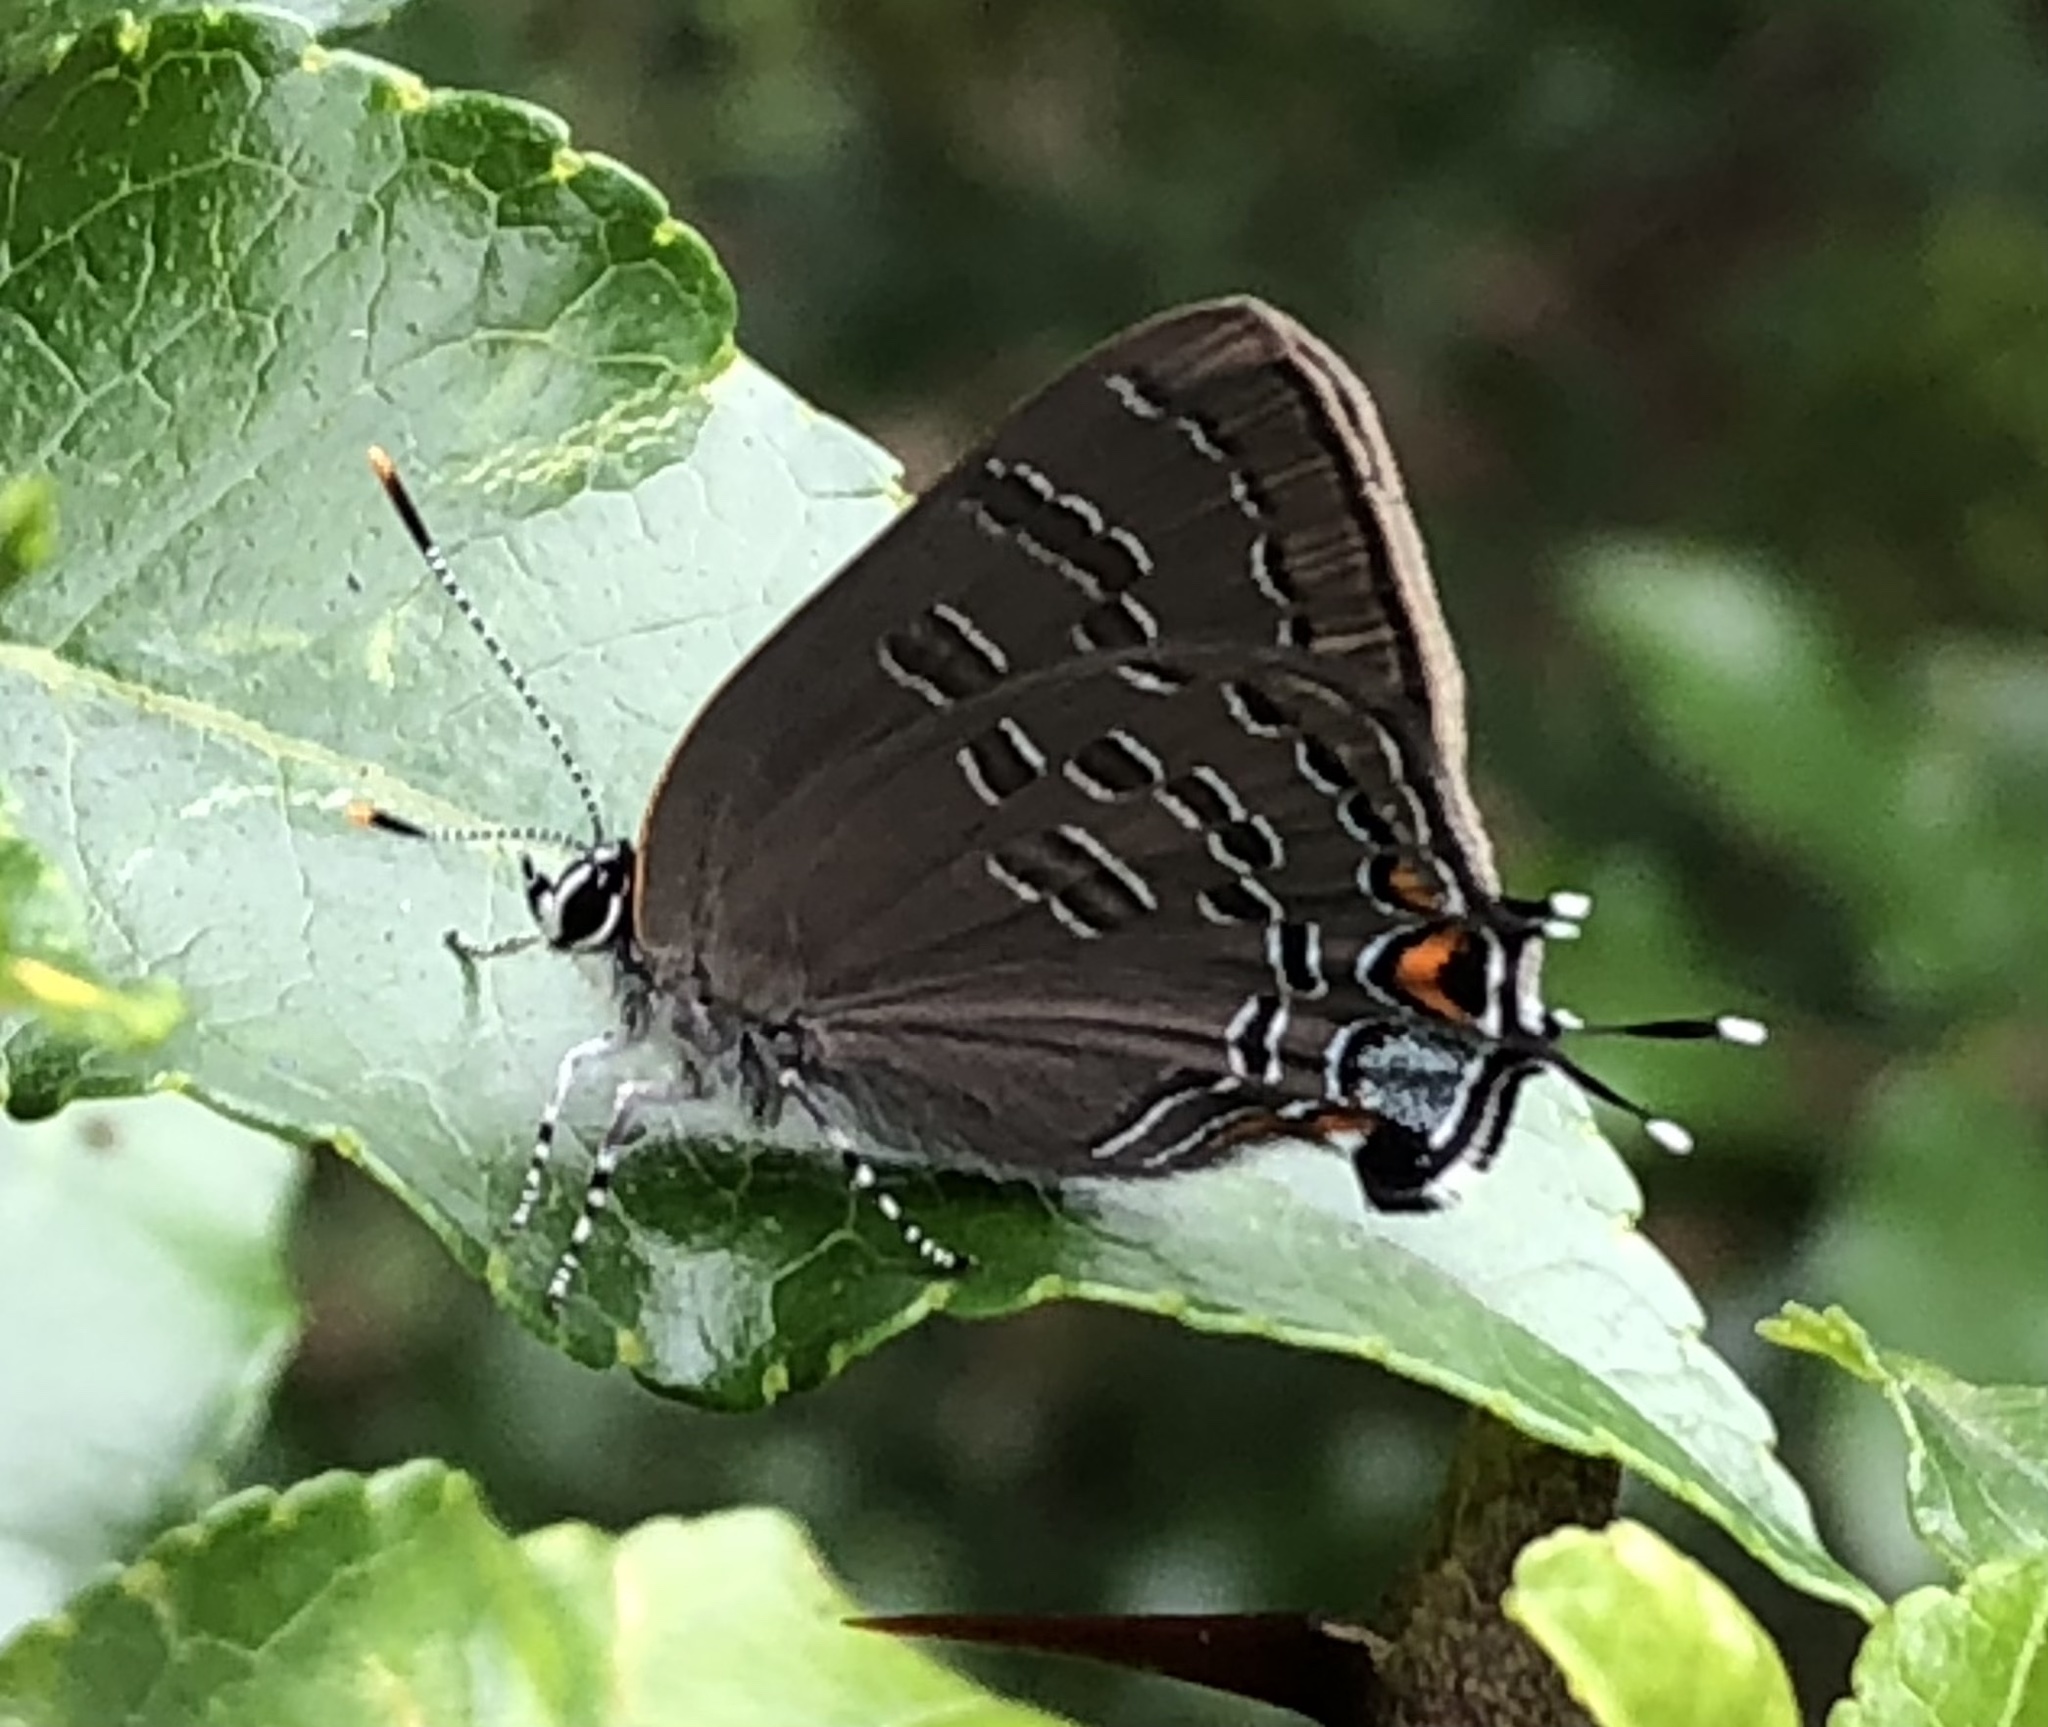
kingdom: Animalia
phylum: Arthropoda
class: Insecta
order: Lepidoptera
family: Lycaenidae
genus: Satyrium
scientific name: Satyrium calanus
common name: Banded hairstreak
